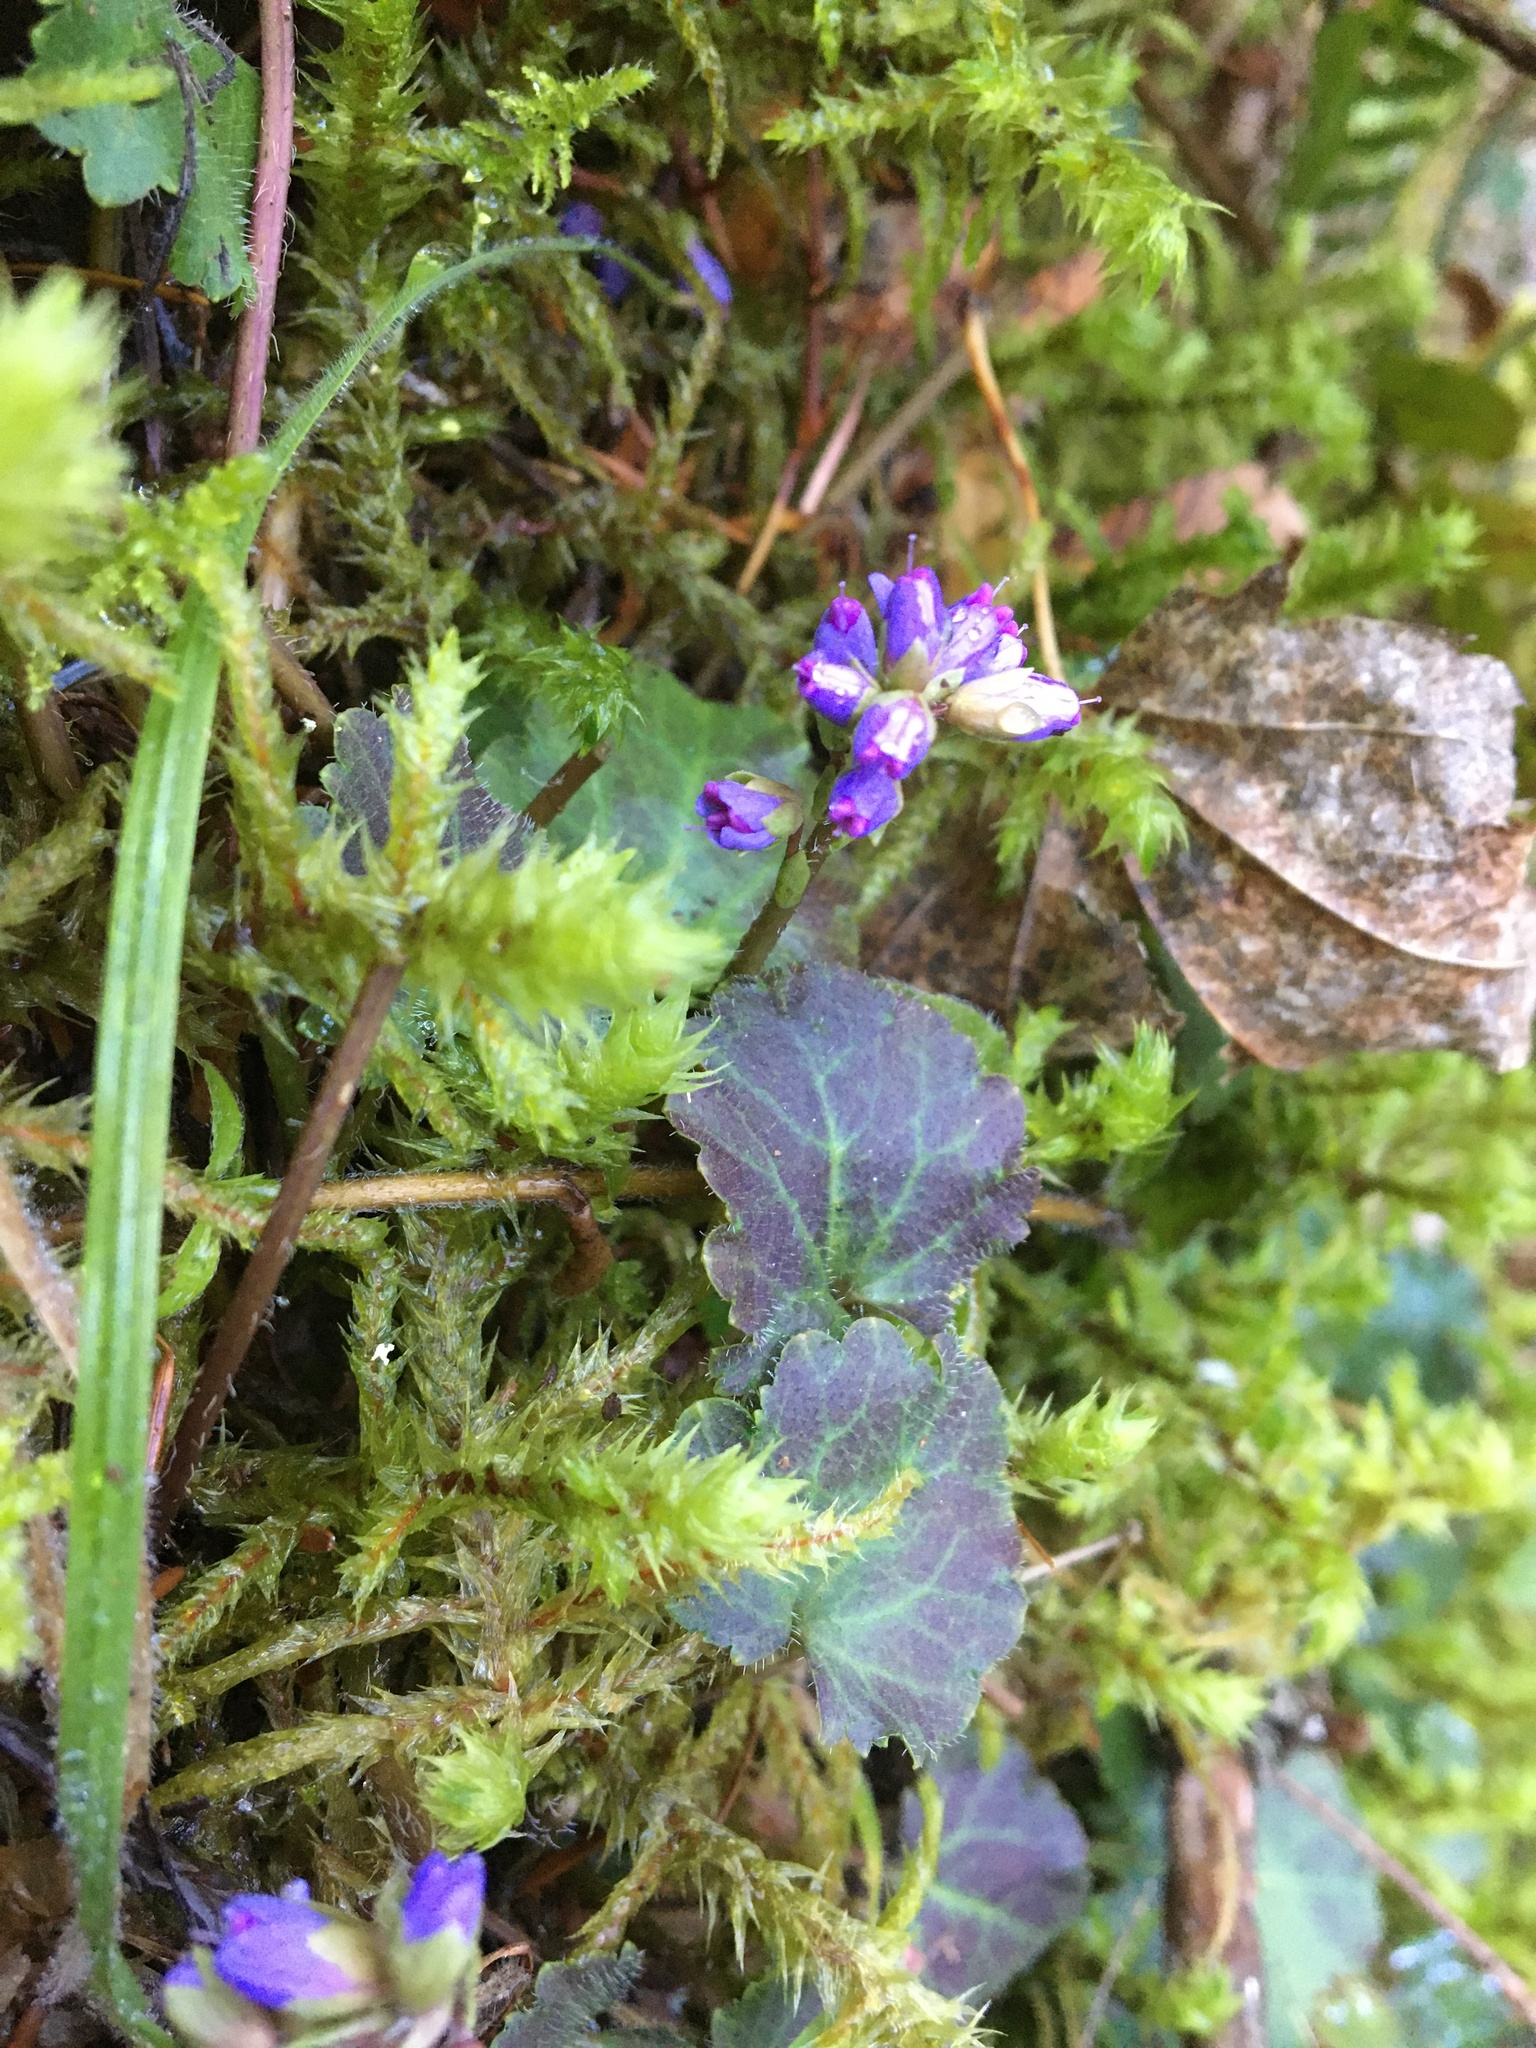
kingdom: Plantae
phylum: Tracheophyta
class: Magnoliopsida
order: Lamiales
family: Plantaginaceae
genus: Synthyris
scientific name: Synthyris reniformis
